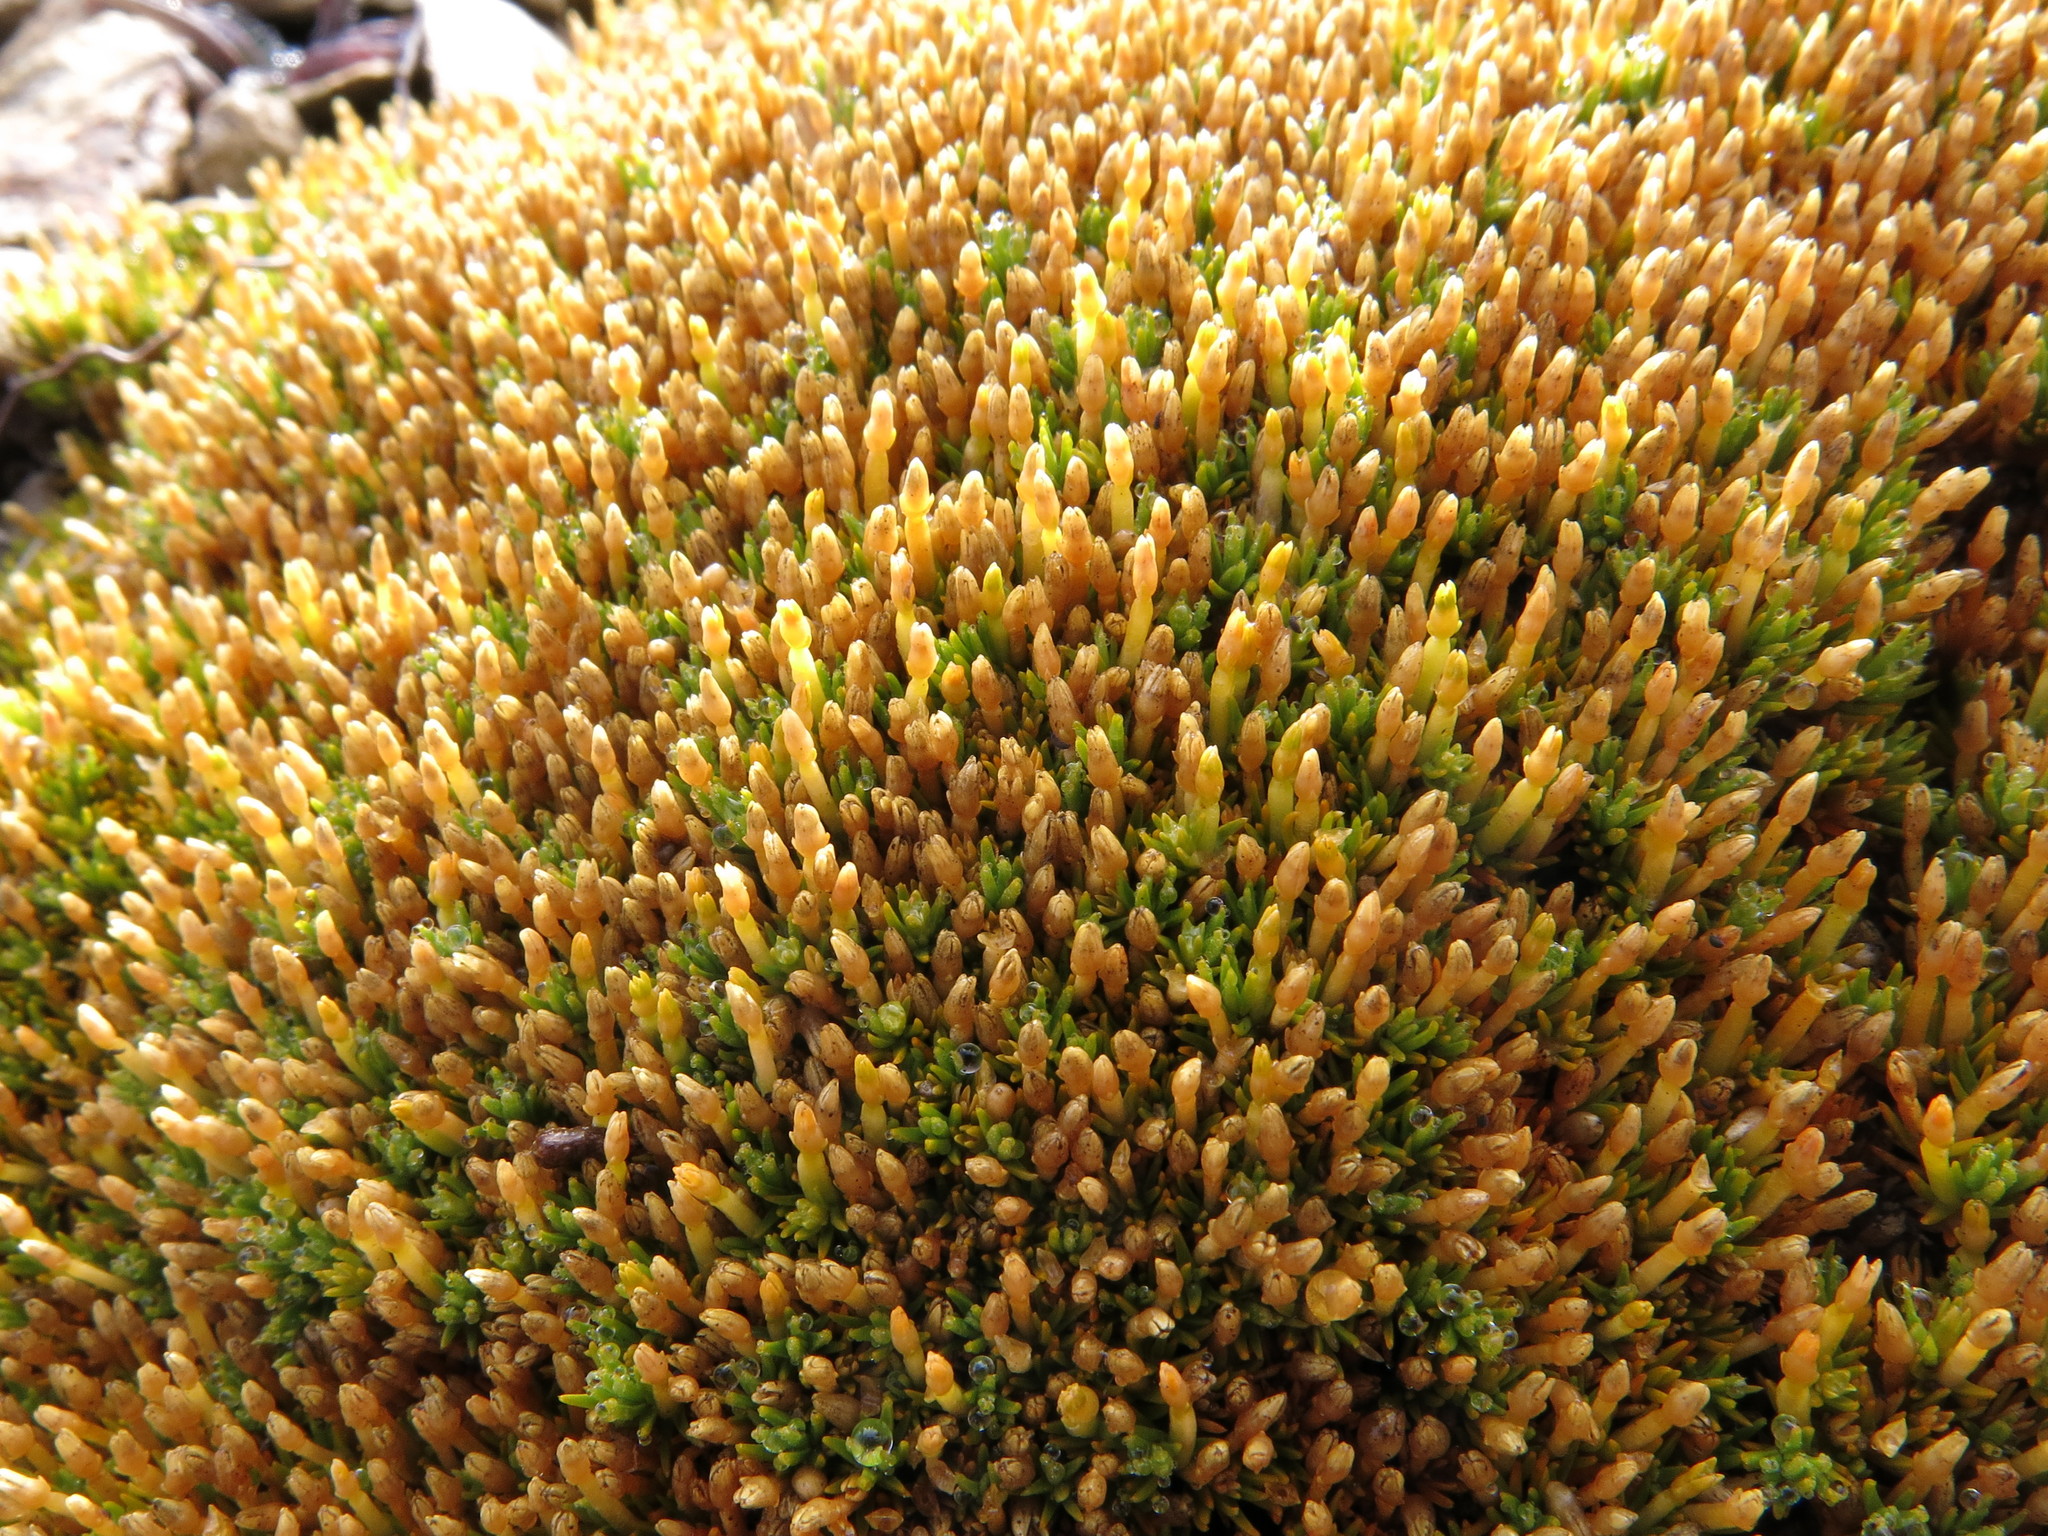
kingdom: Plantae
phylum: Tracheophyta
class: Magnoliopsida
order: Caryophyllales
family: Caryophyllaceae
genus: Scleranthus
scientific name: Scleranthus uniflorus
